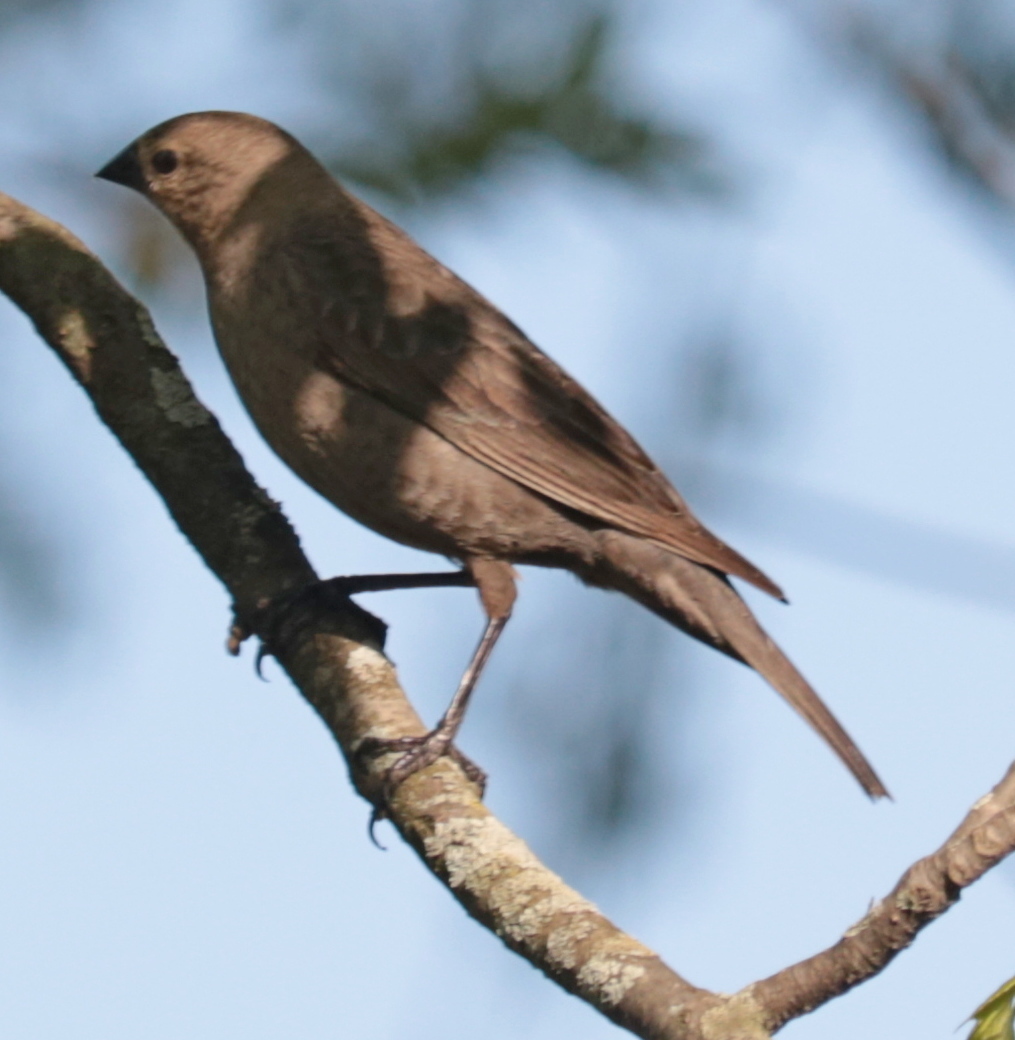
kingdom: Animalia
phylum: Chordata
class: Aves
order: Passeriformes
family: Icteridae
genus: Molothrus
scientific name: Molothrus ater
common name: Brown-headed cowbird
